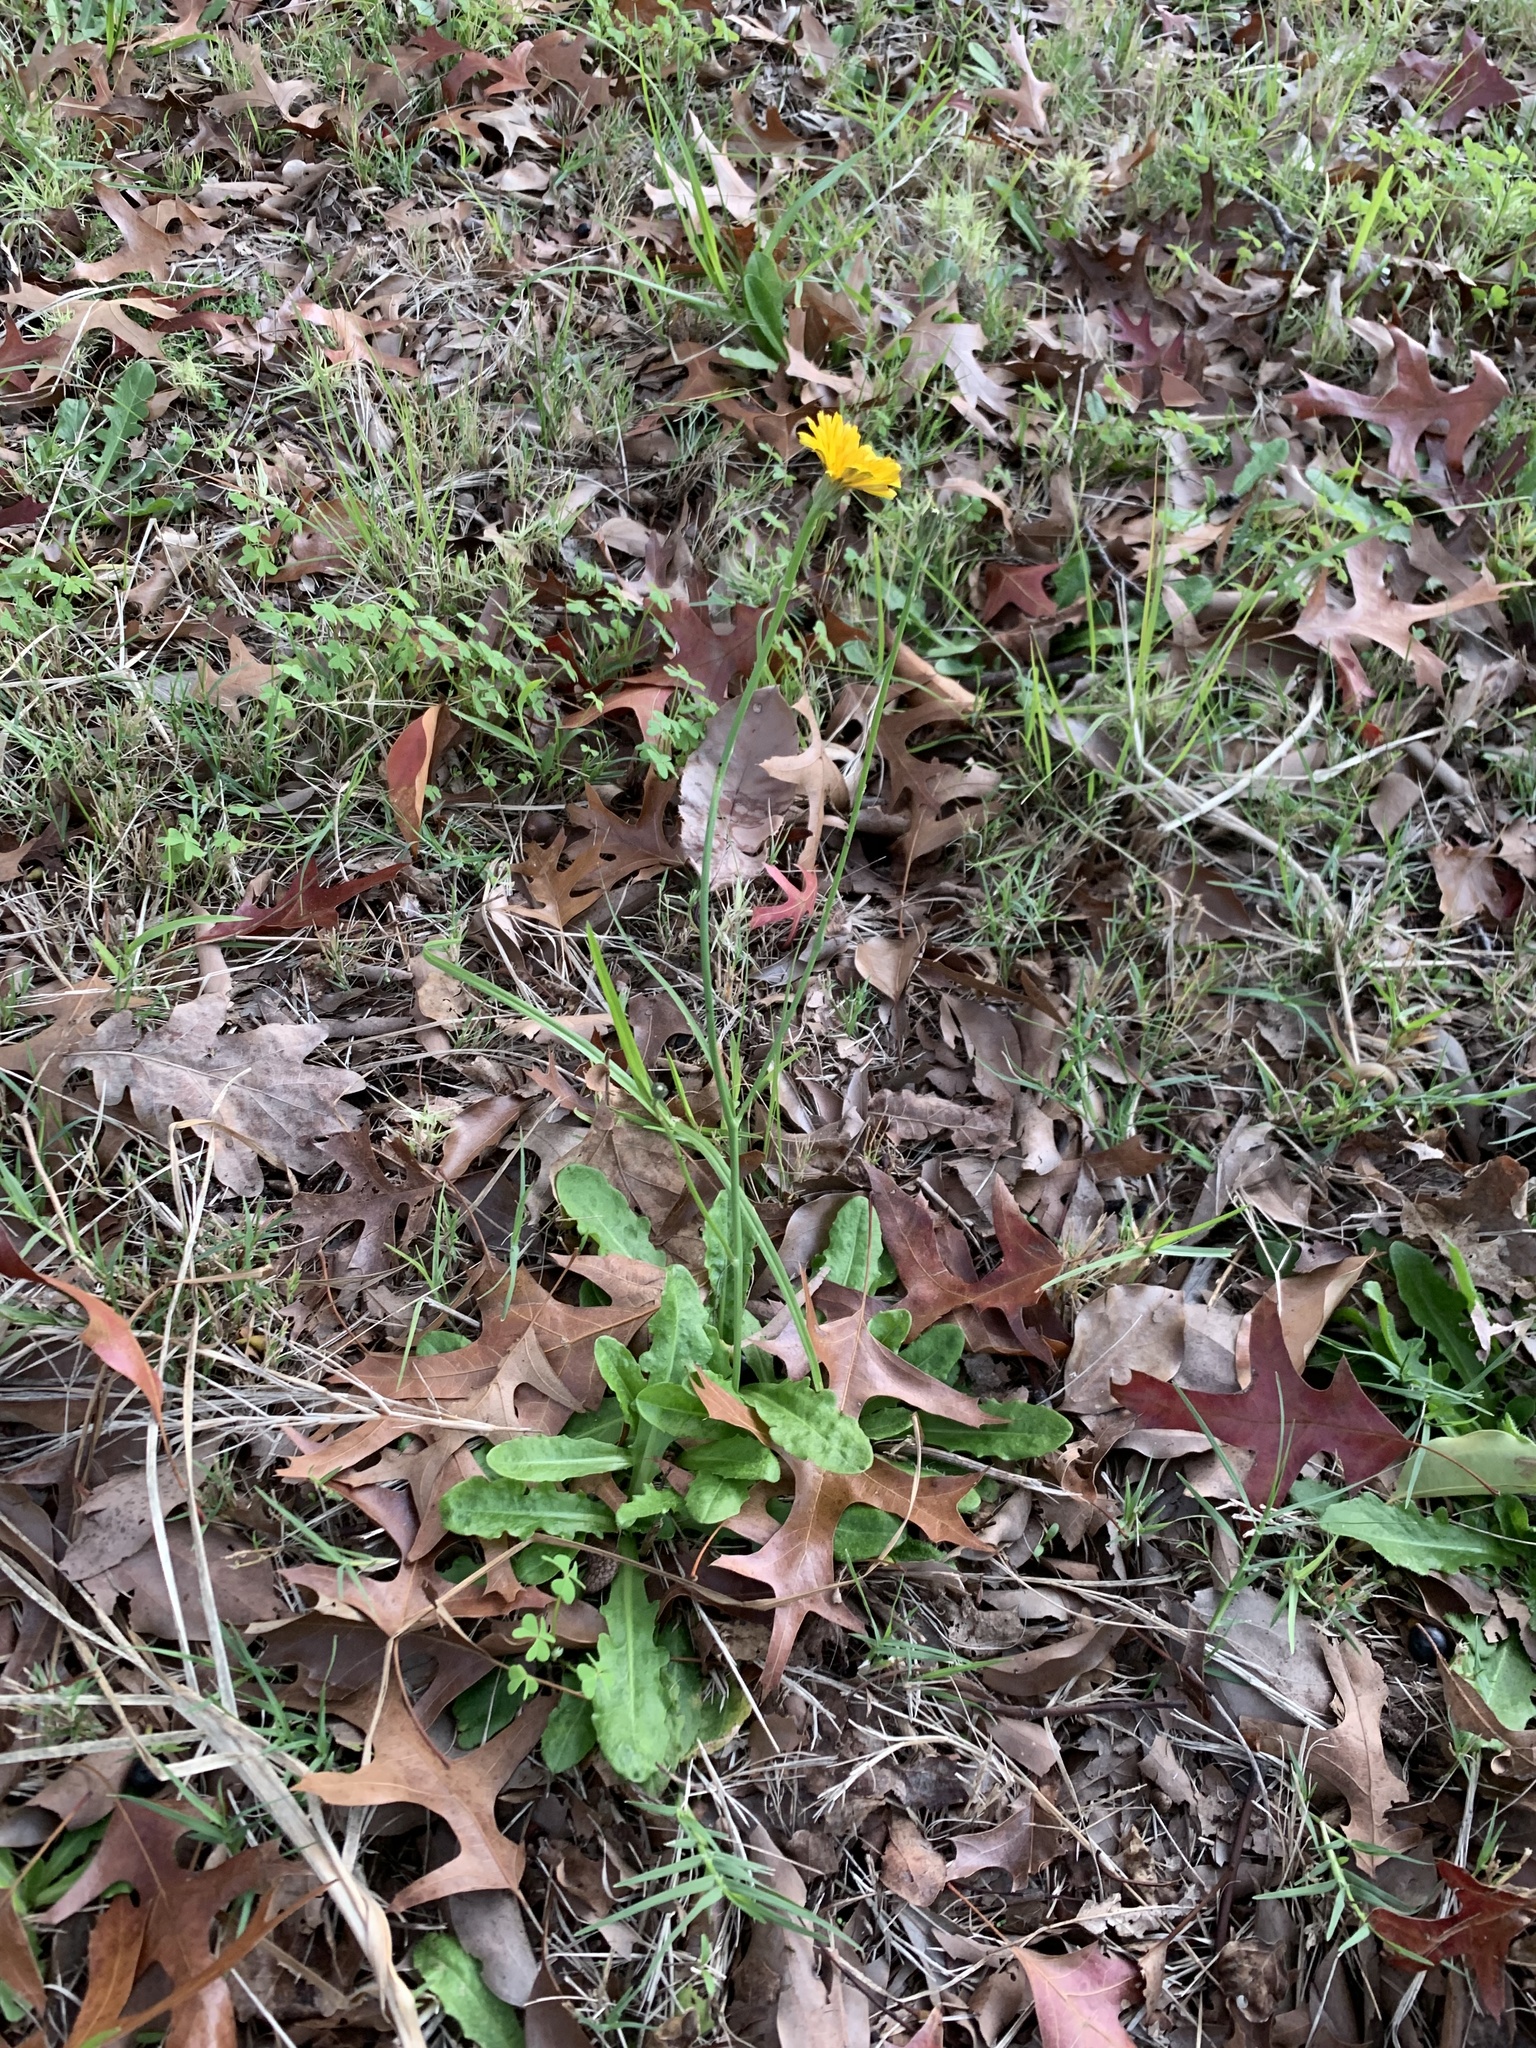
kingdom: Plantae
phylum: Tracheophyta
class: Magnoliopsida
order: Asterales
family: Asteraceae
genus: Hypochaeris
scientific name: Hypochaeris radicata
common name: Flatweed
